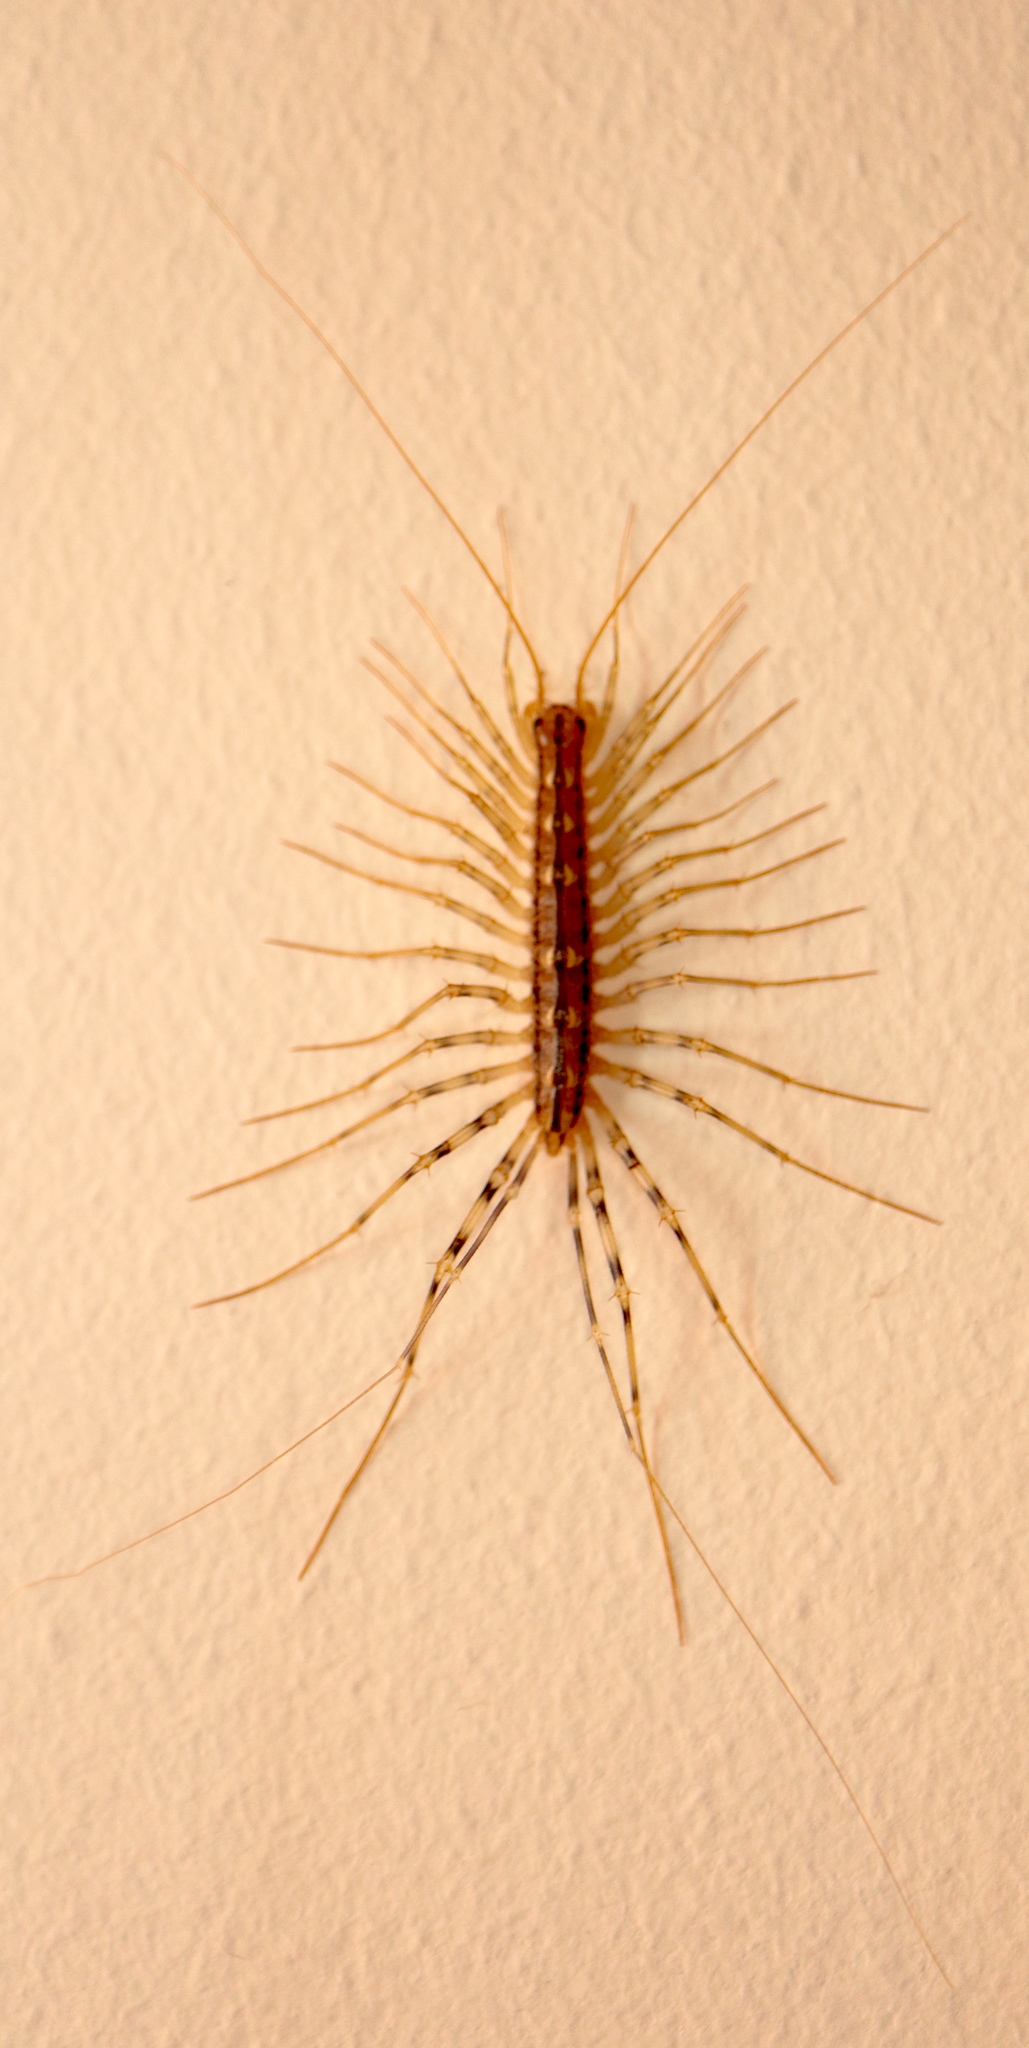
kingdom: Animalia
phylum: Arthropoda
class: Chilopoda
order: Scutigeromorpha
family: Scutigeridae
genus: Scutigera
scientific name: Scutigera coleoptrata
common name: House centipede
